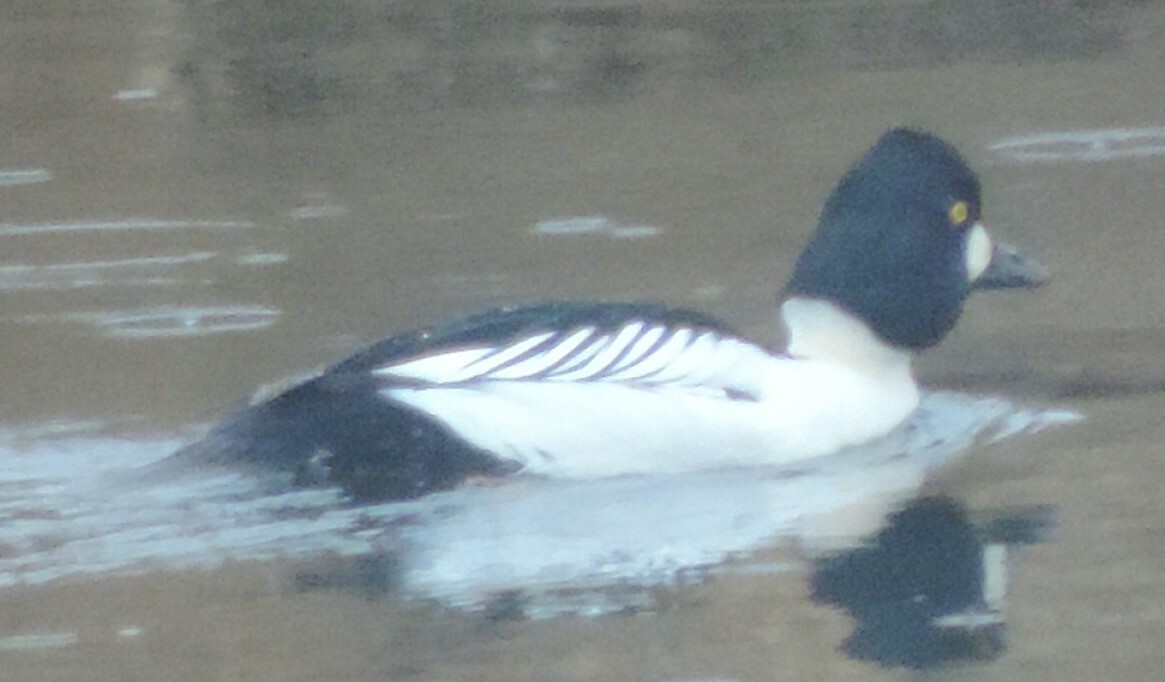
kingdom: Animalia
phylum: Chordata
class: Aves
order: Anseriformes
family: Anatidae
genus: Bucephala
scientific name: Bucephala clangula
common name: Common goldeneye
